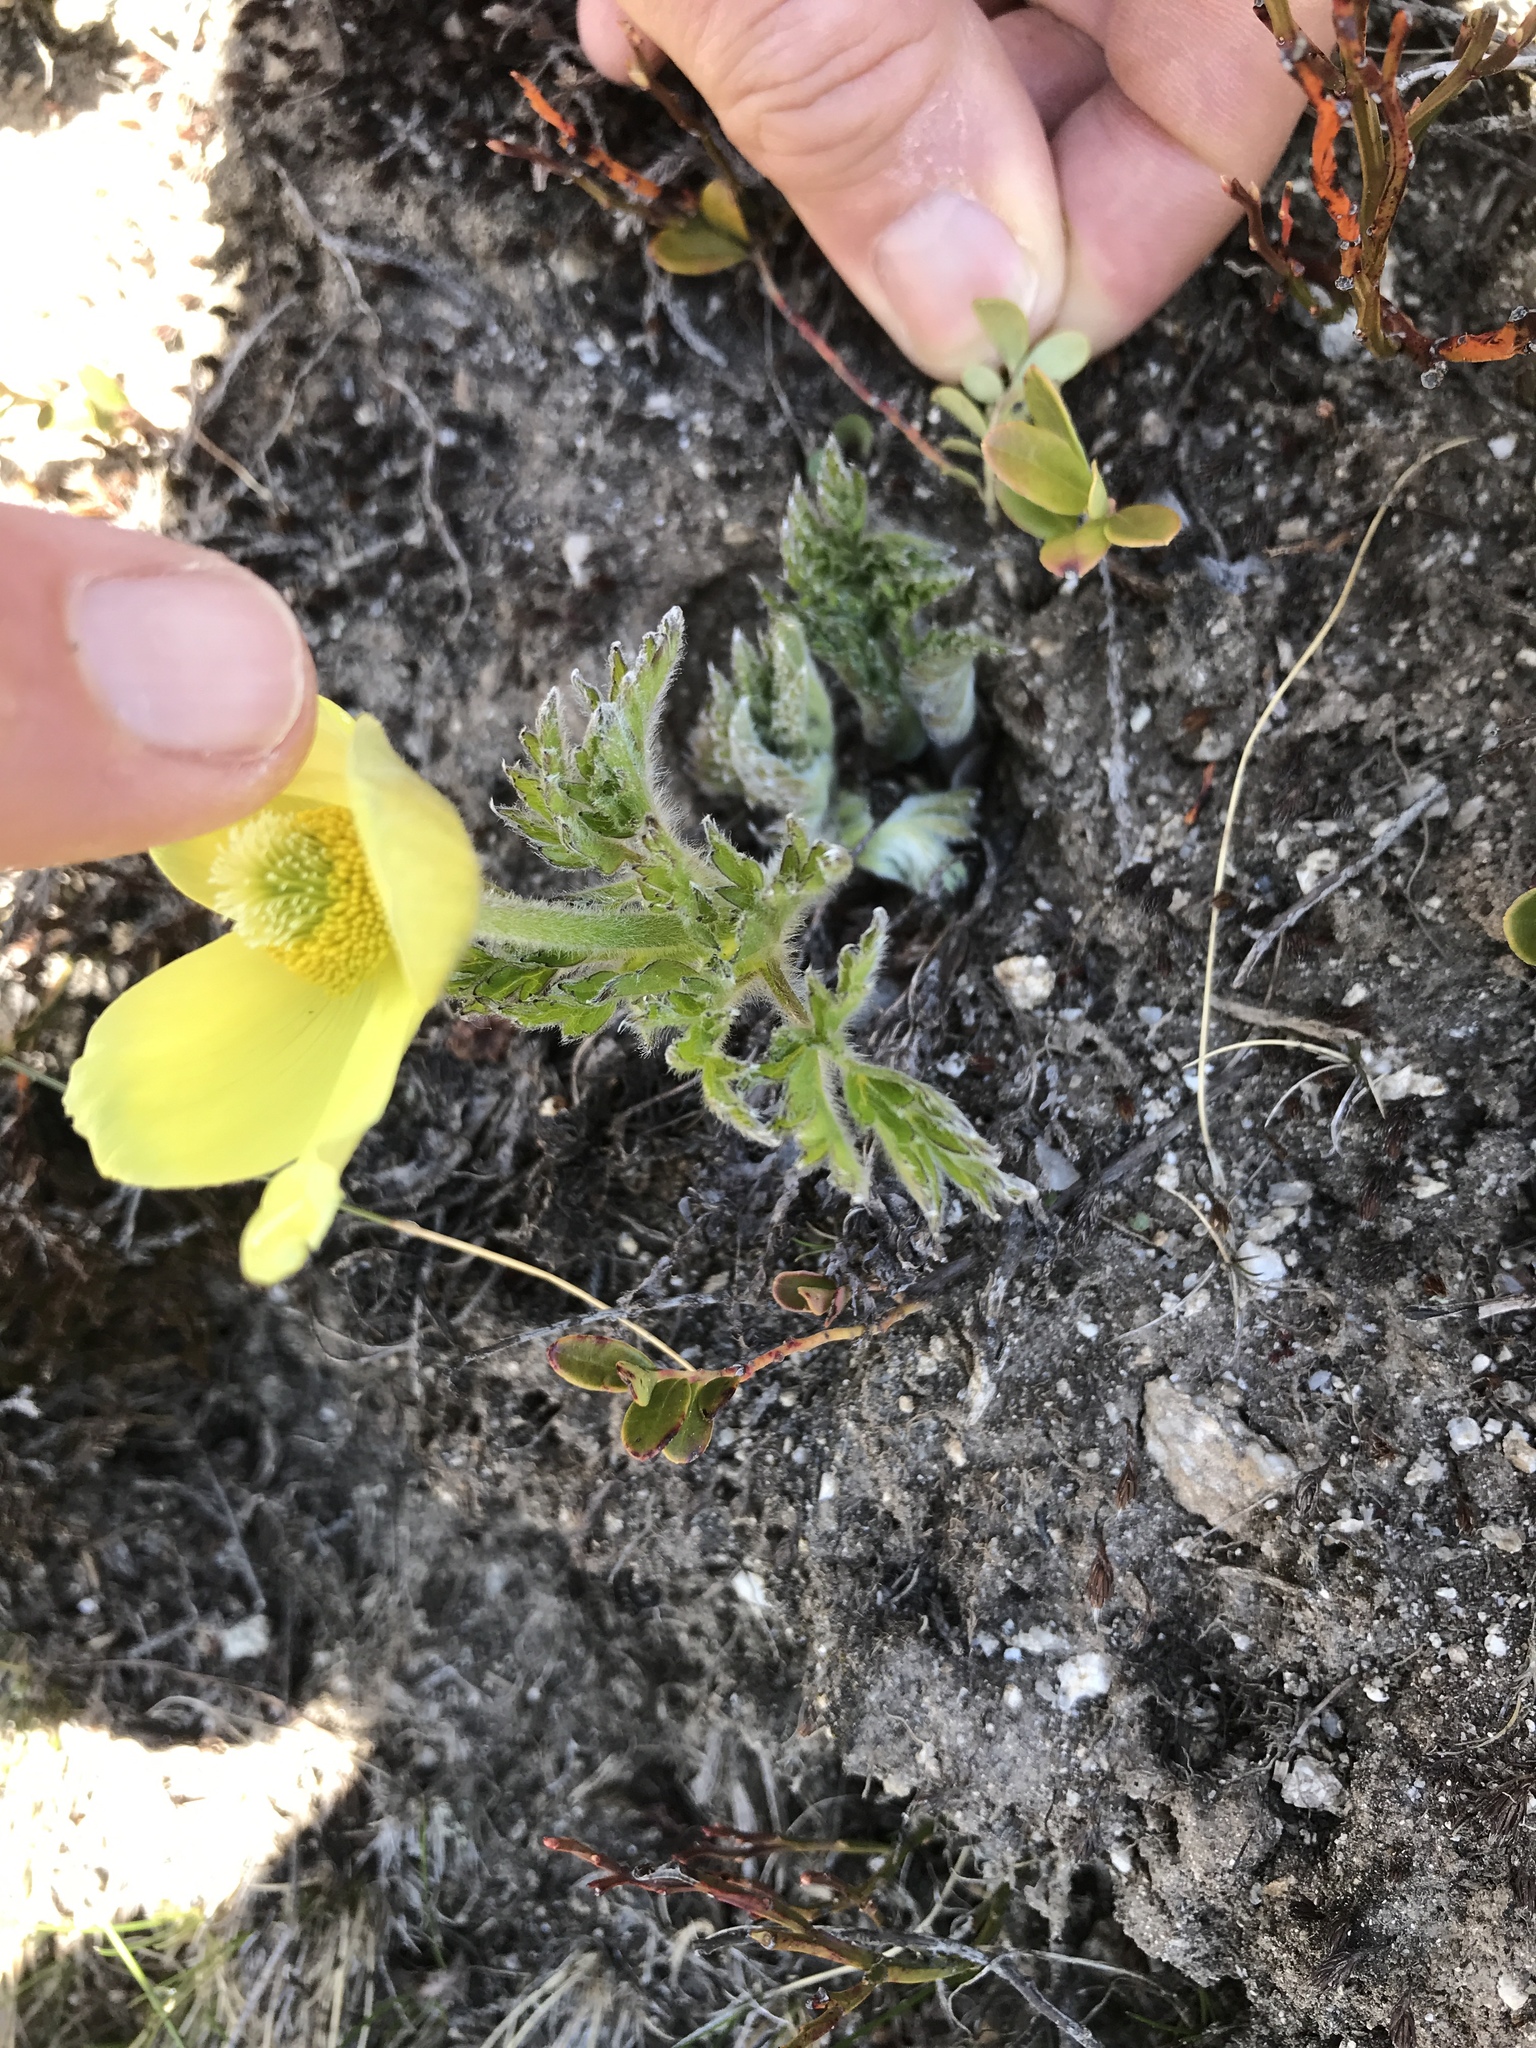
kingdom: Plantae
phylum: Tracheophyta
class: Magnoliopsida
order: Ranunculales
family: Ranunculaceae
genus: Pulsatilla
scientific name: Pulsatilla alpina
